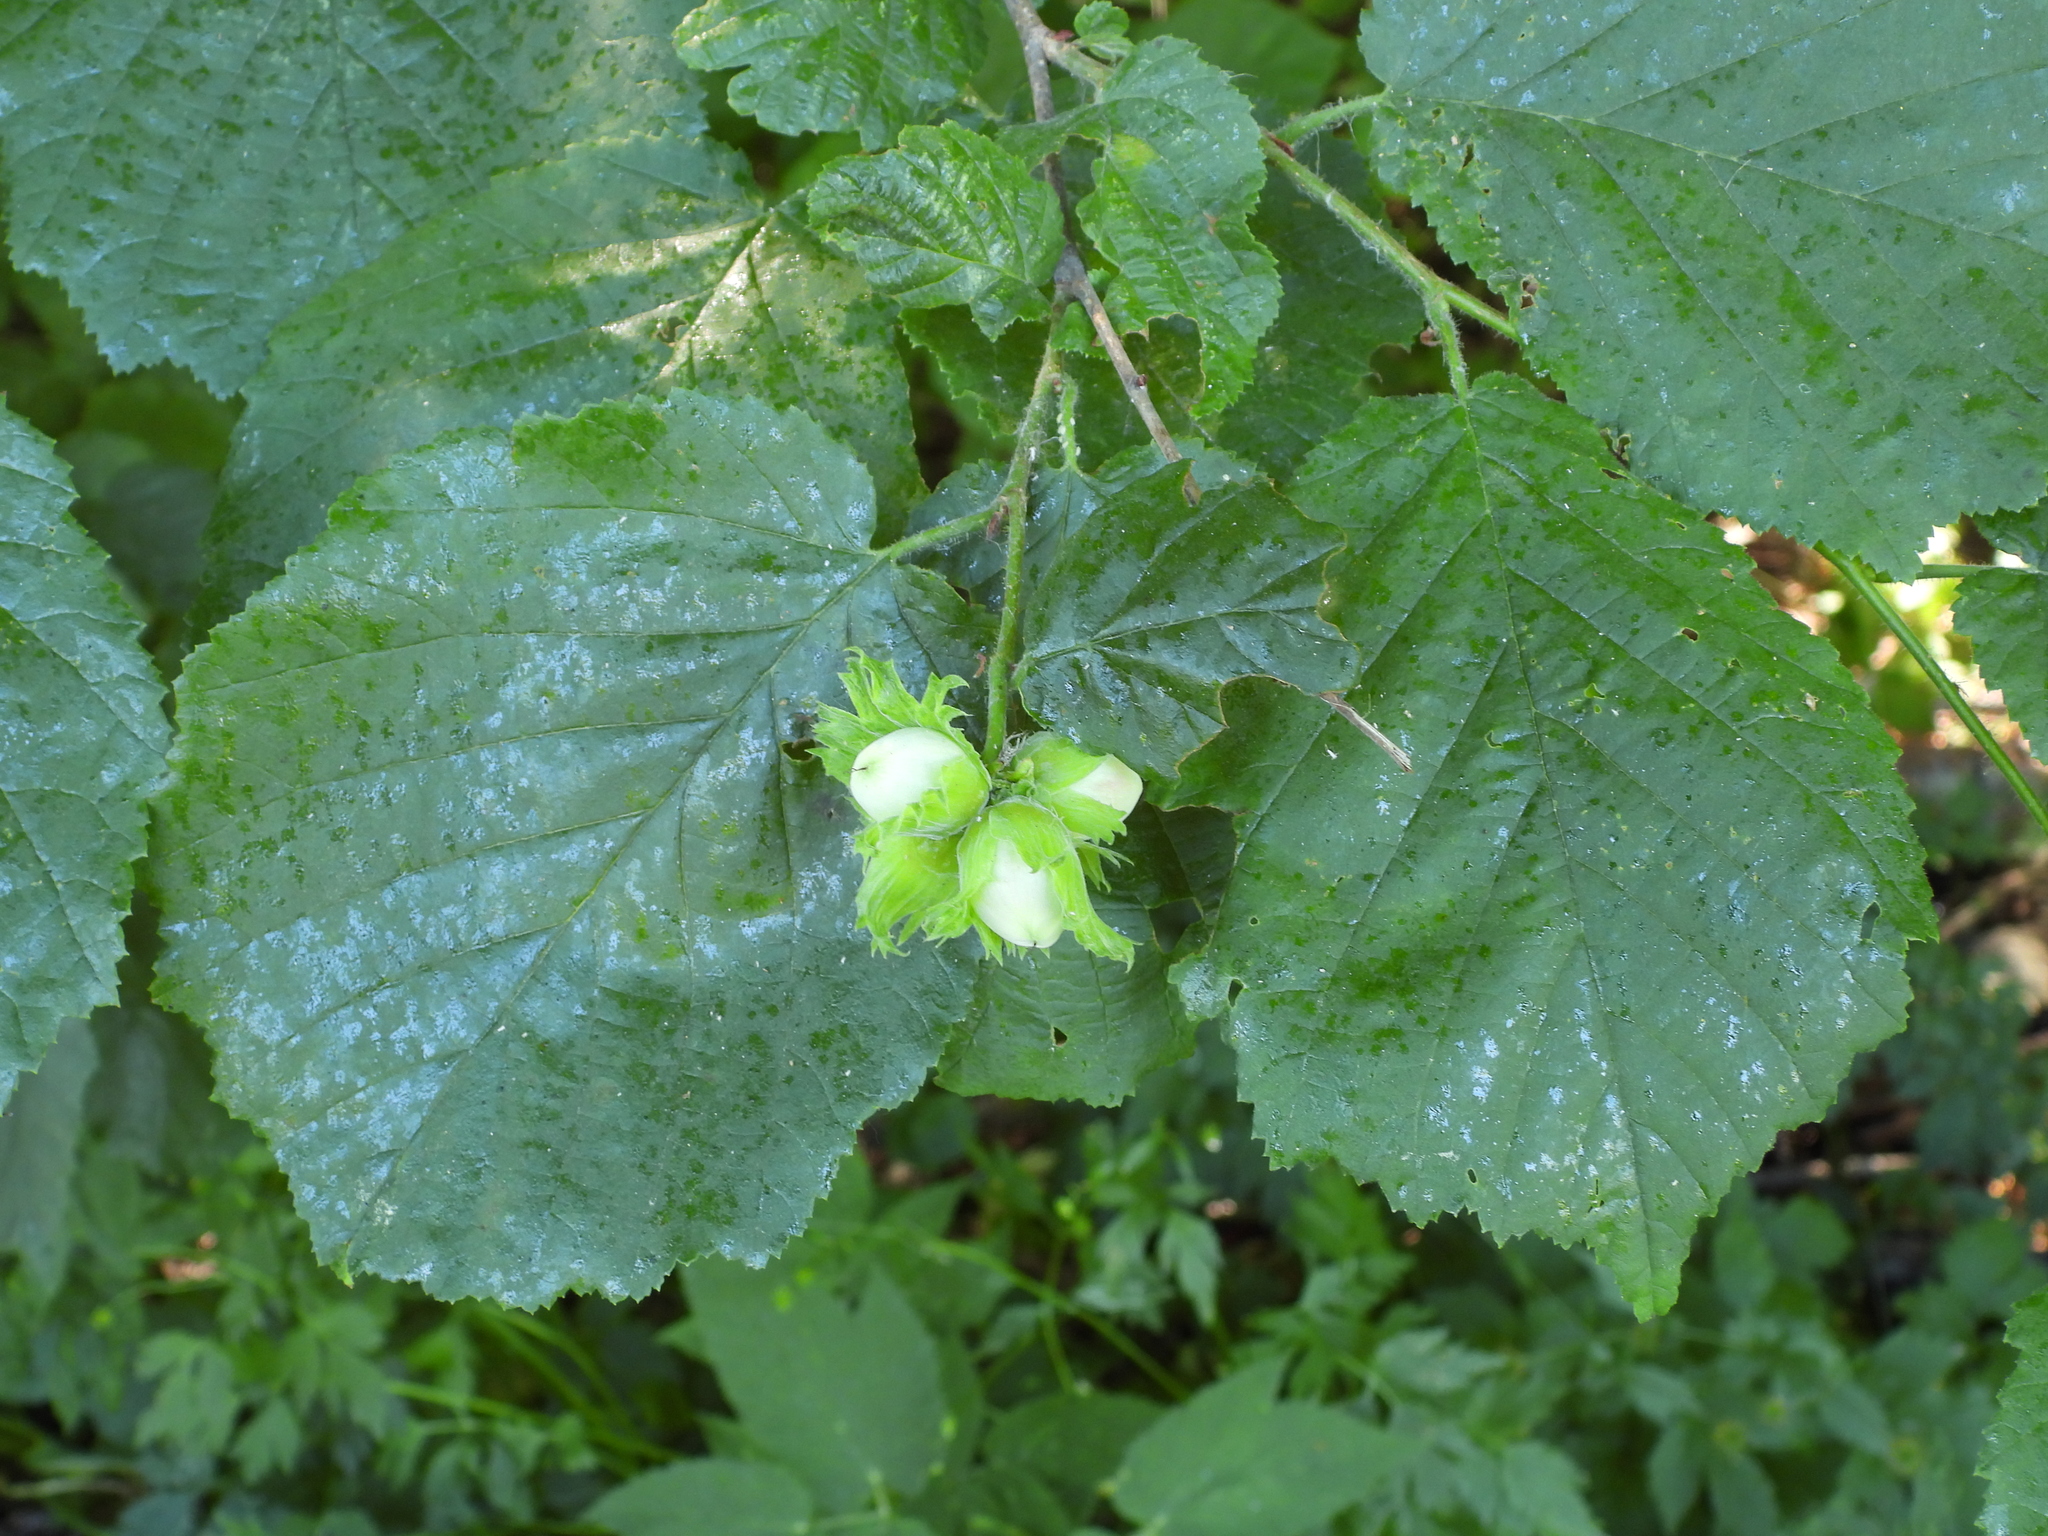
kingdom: Plantae
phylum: Tracheophyta
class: Magnoliopsida
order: Fagales
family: Betulaceae
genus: Corylus
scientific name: Corylus avellana
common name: European hazel
